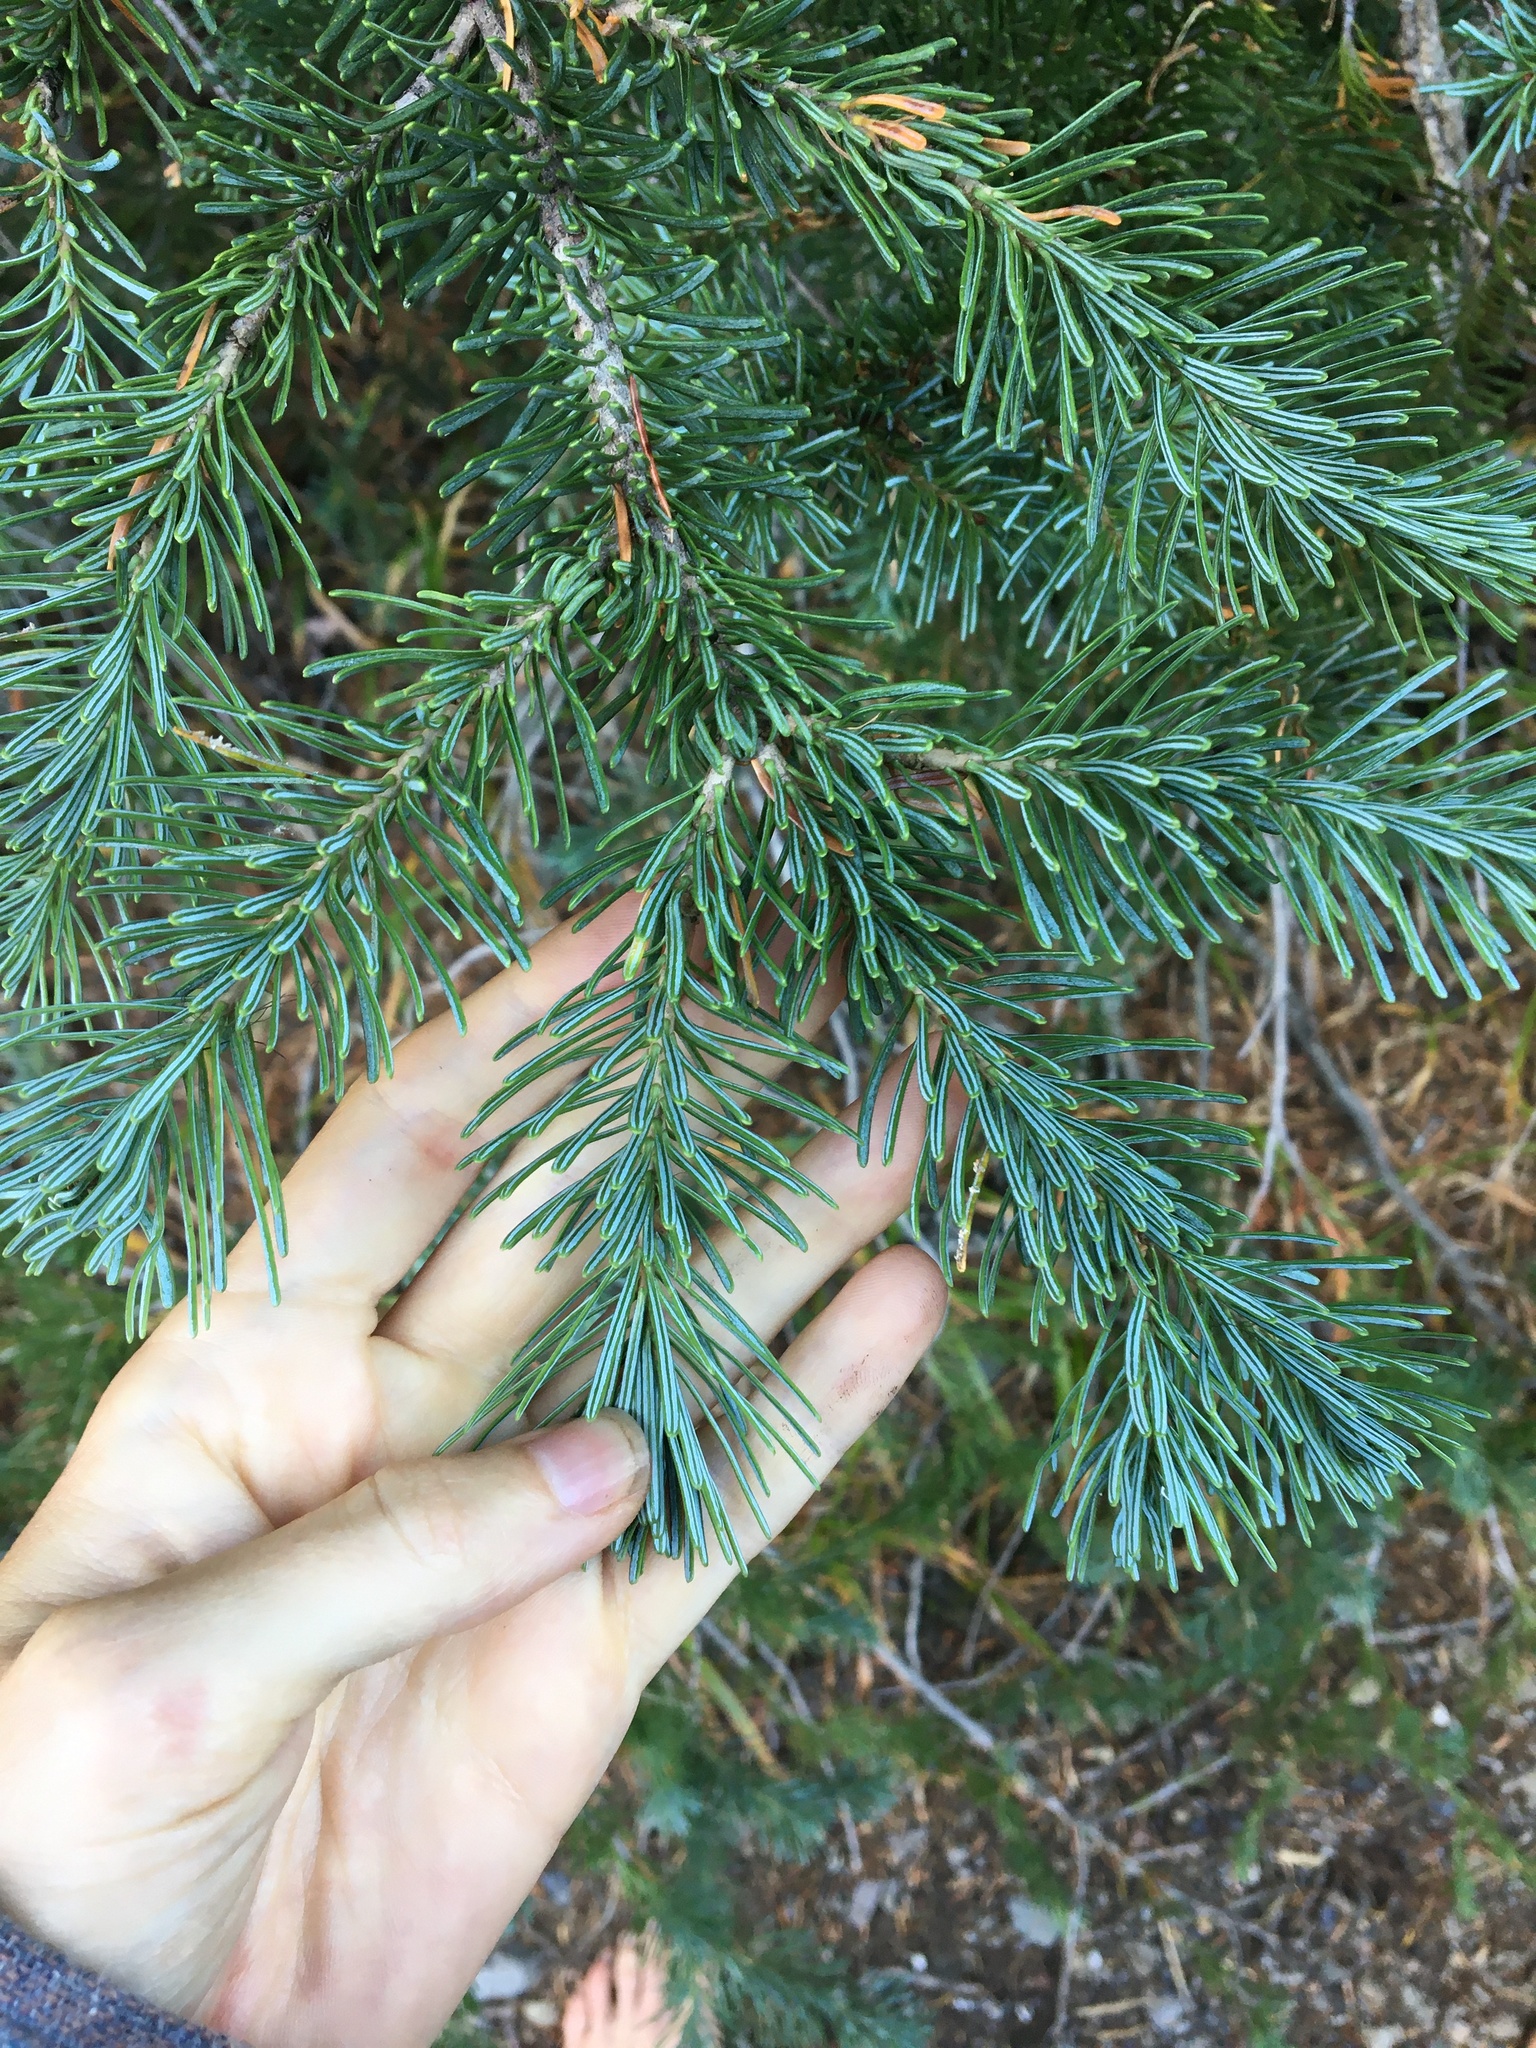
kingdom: Plantae
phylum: Tracheophyta
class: Pinopsida
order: Pinales
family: Pinaceae
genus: Abies
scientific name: Abies lasiocarpa
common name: Subalpine fir
